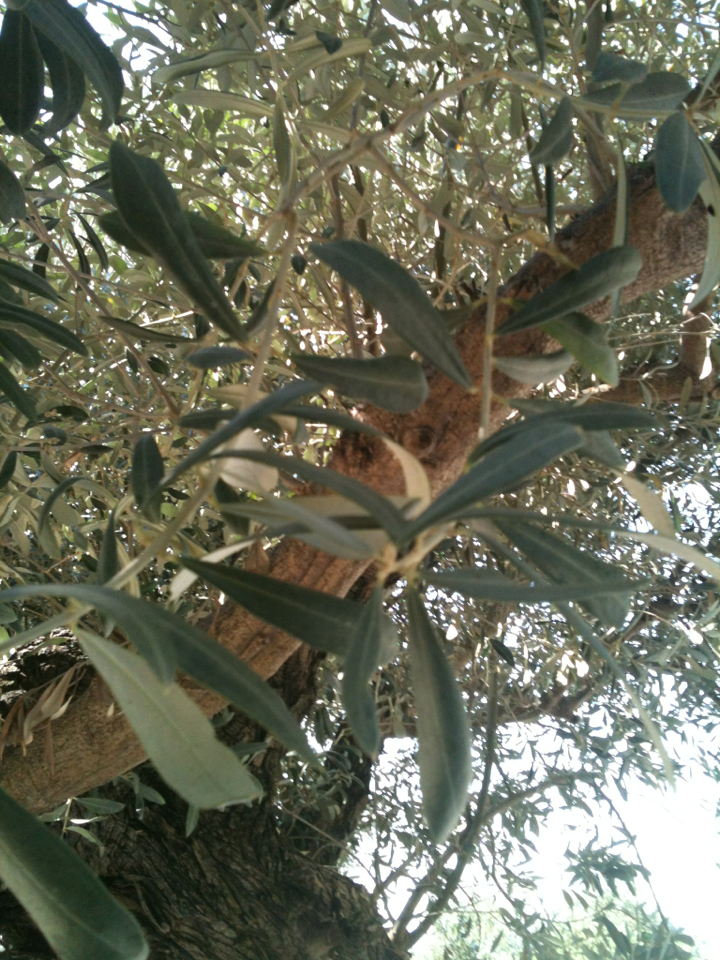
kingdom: Plantae
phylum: Tracheophyta
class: Magnoliopsida
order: Lamiales
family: Oleaceae
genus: Olea
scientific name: Olea europaea
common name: Olive
